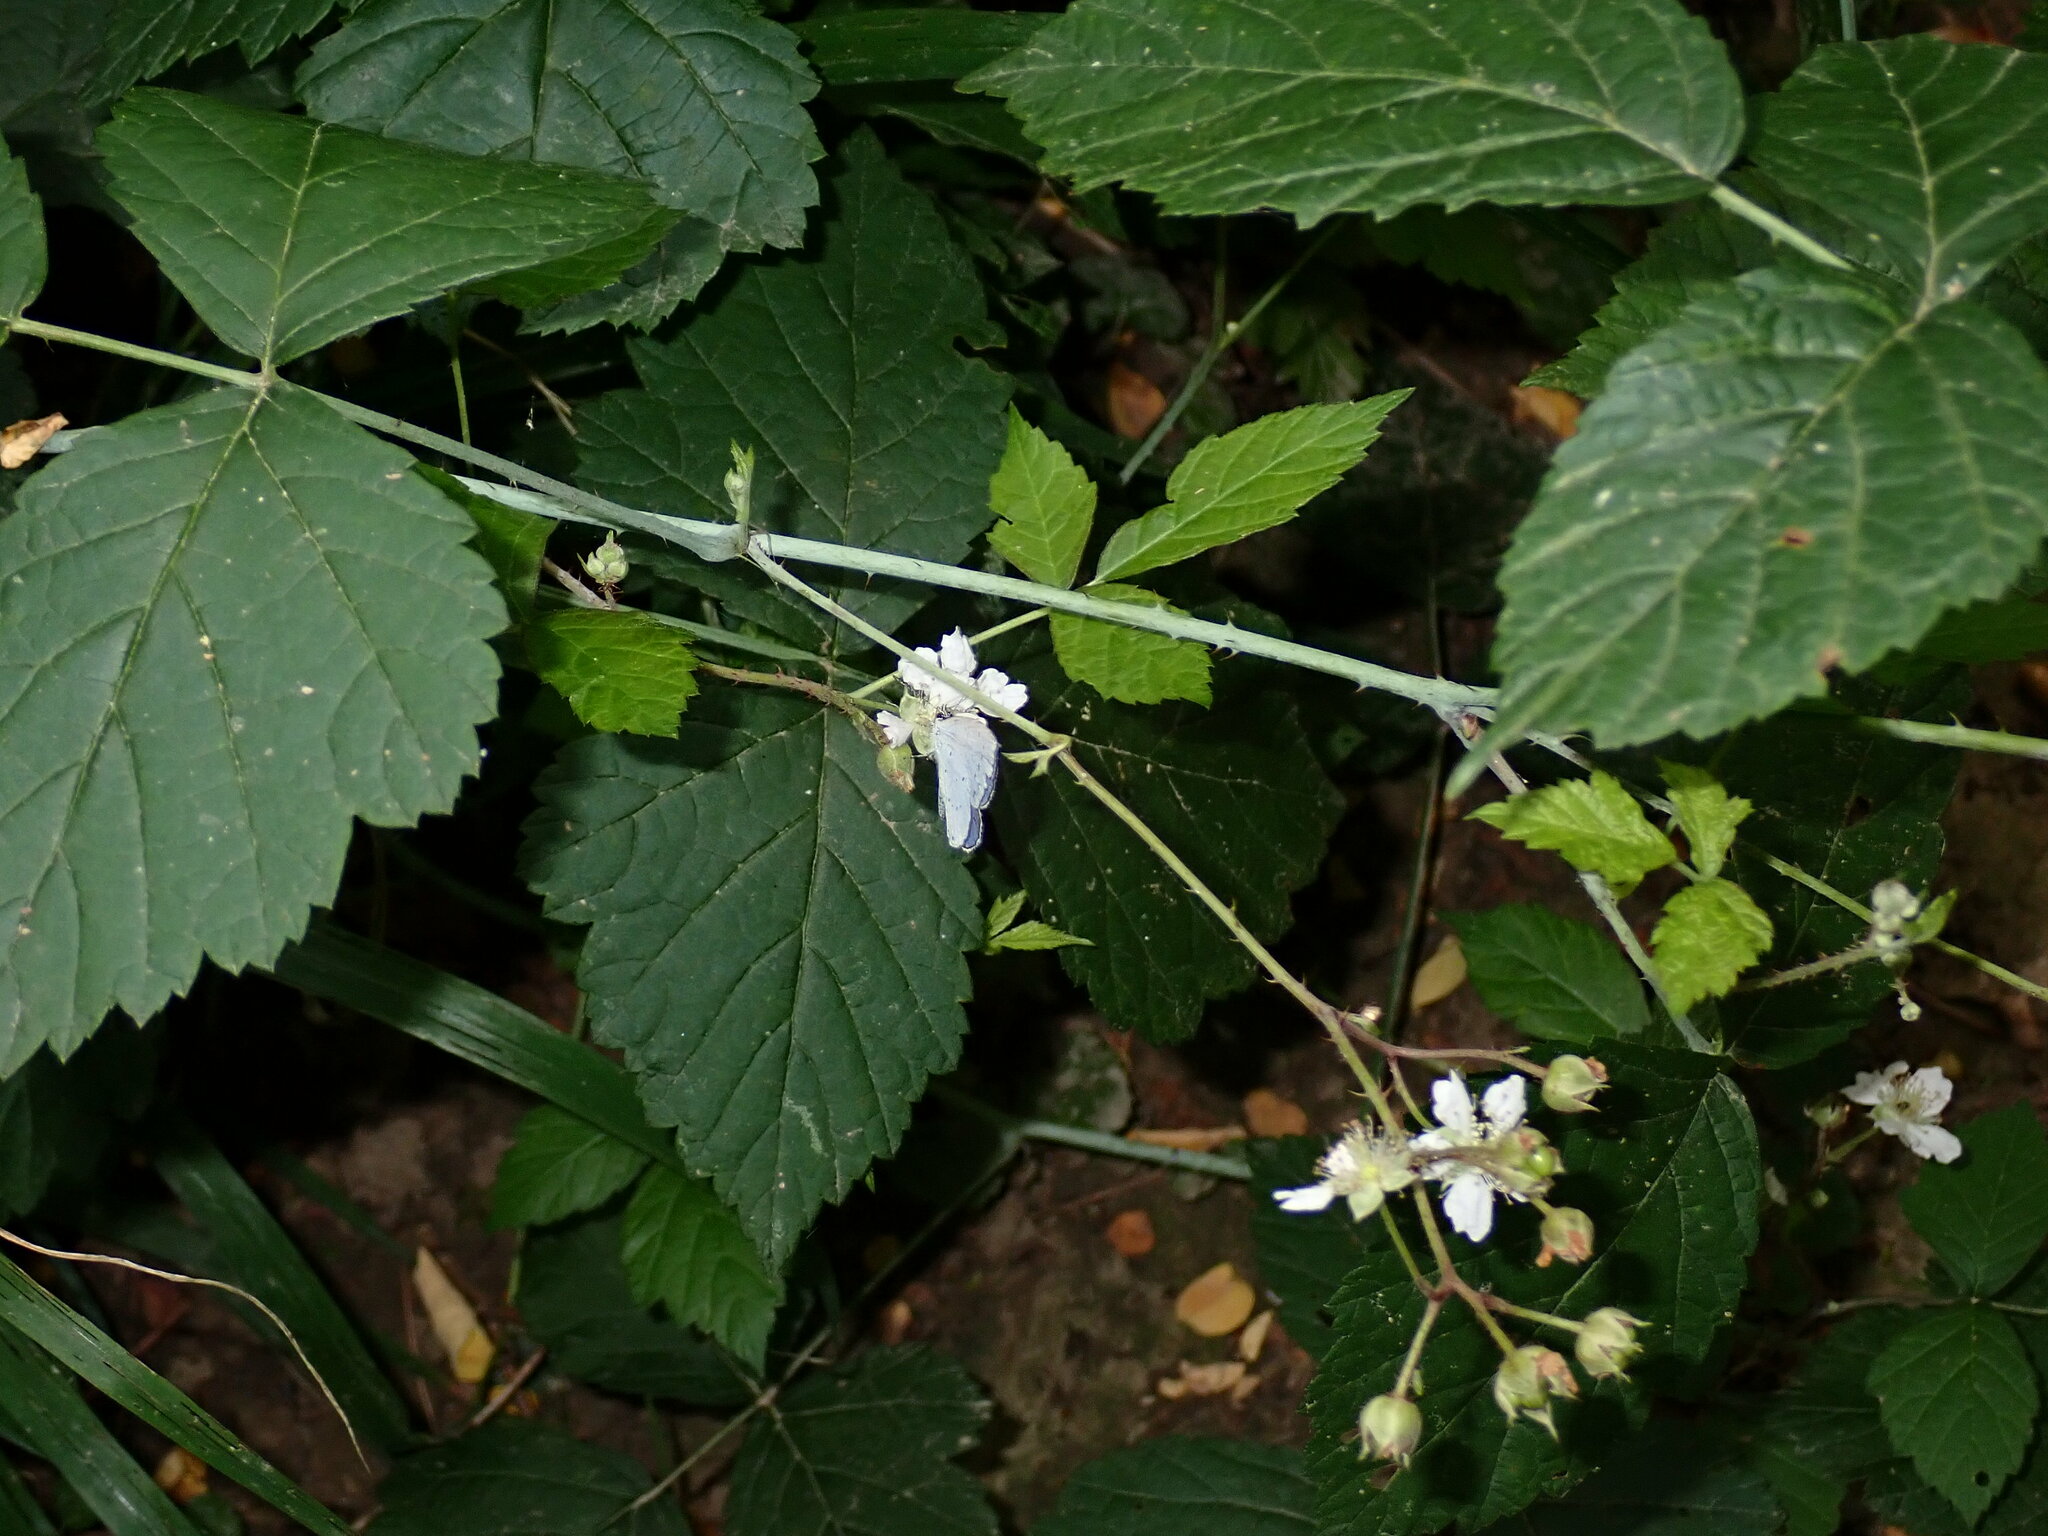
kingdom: Animalia
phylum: Arthropoda
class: Insecta
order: Lepidoptera
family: Lycaenidae
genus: Celastrina
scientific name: Celastrina argiolus
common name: Holly blue
